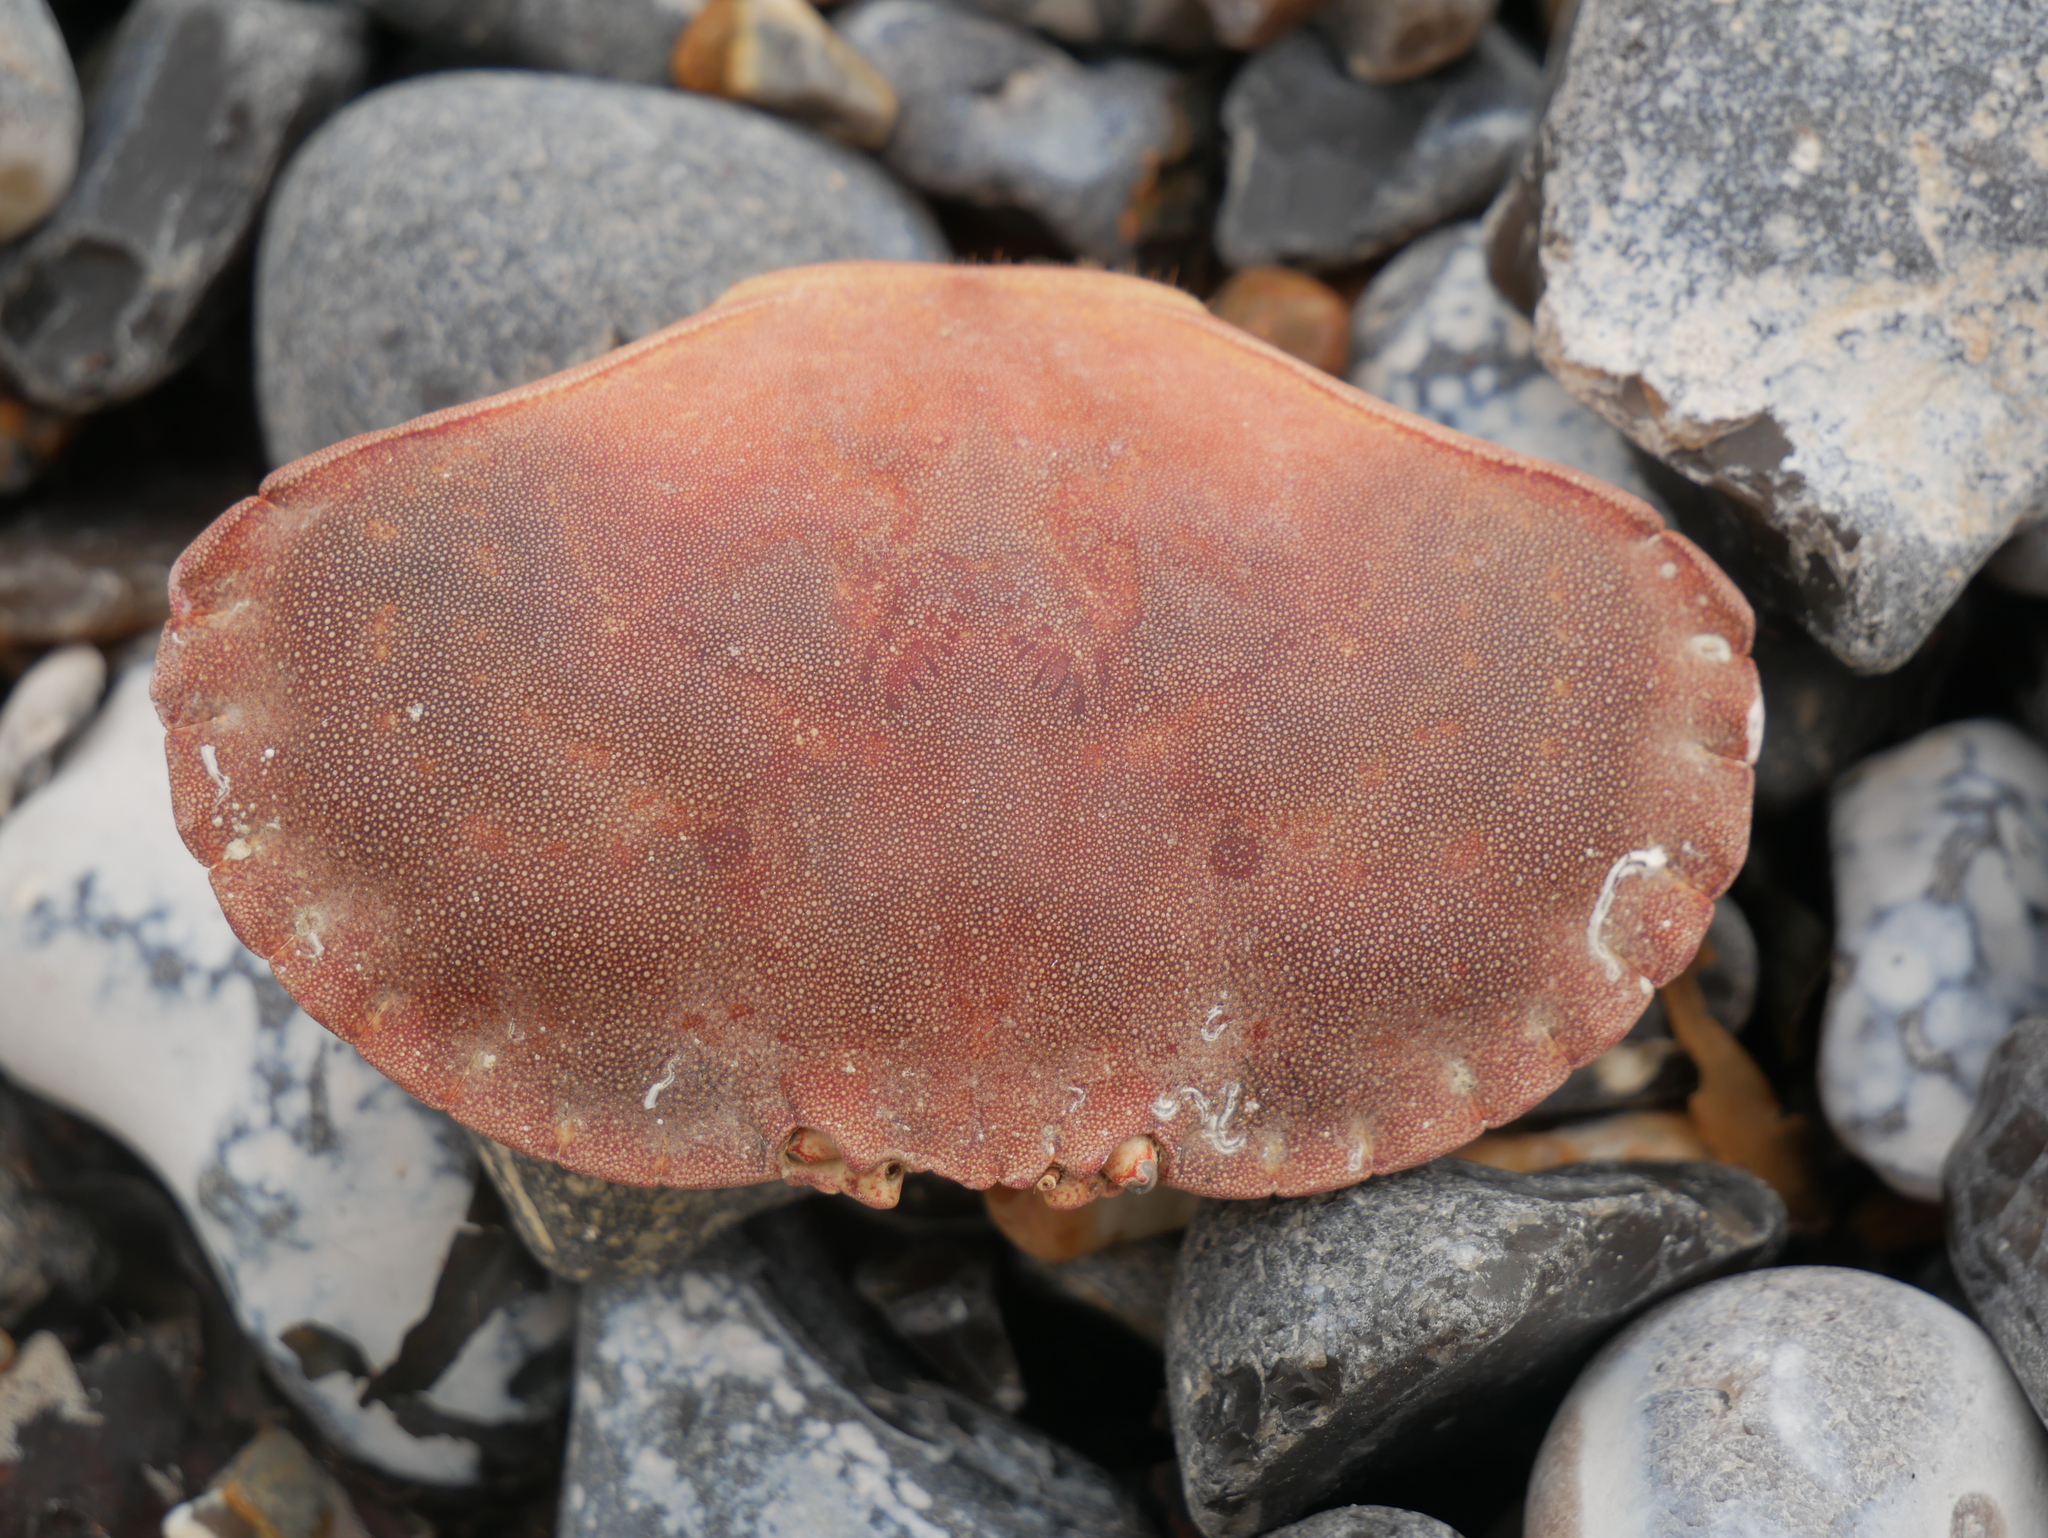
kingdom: Animalia
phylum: Arthropoda
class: Malacostraca
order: Decapoda
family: Cancridae
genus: Cancer
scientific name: Cancer pagurus
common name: Edible crab
